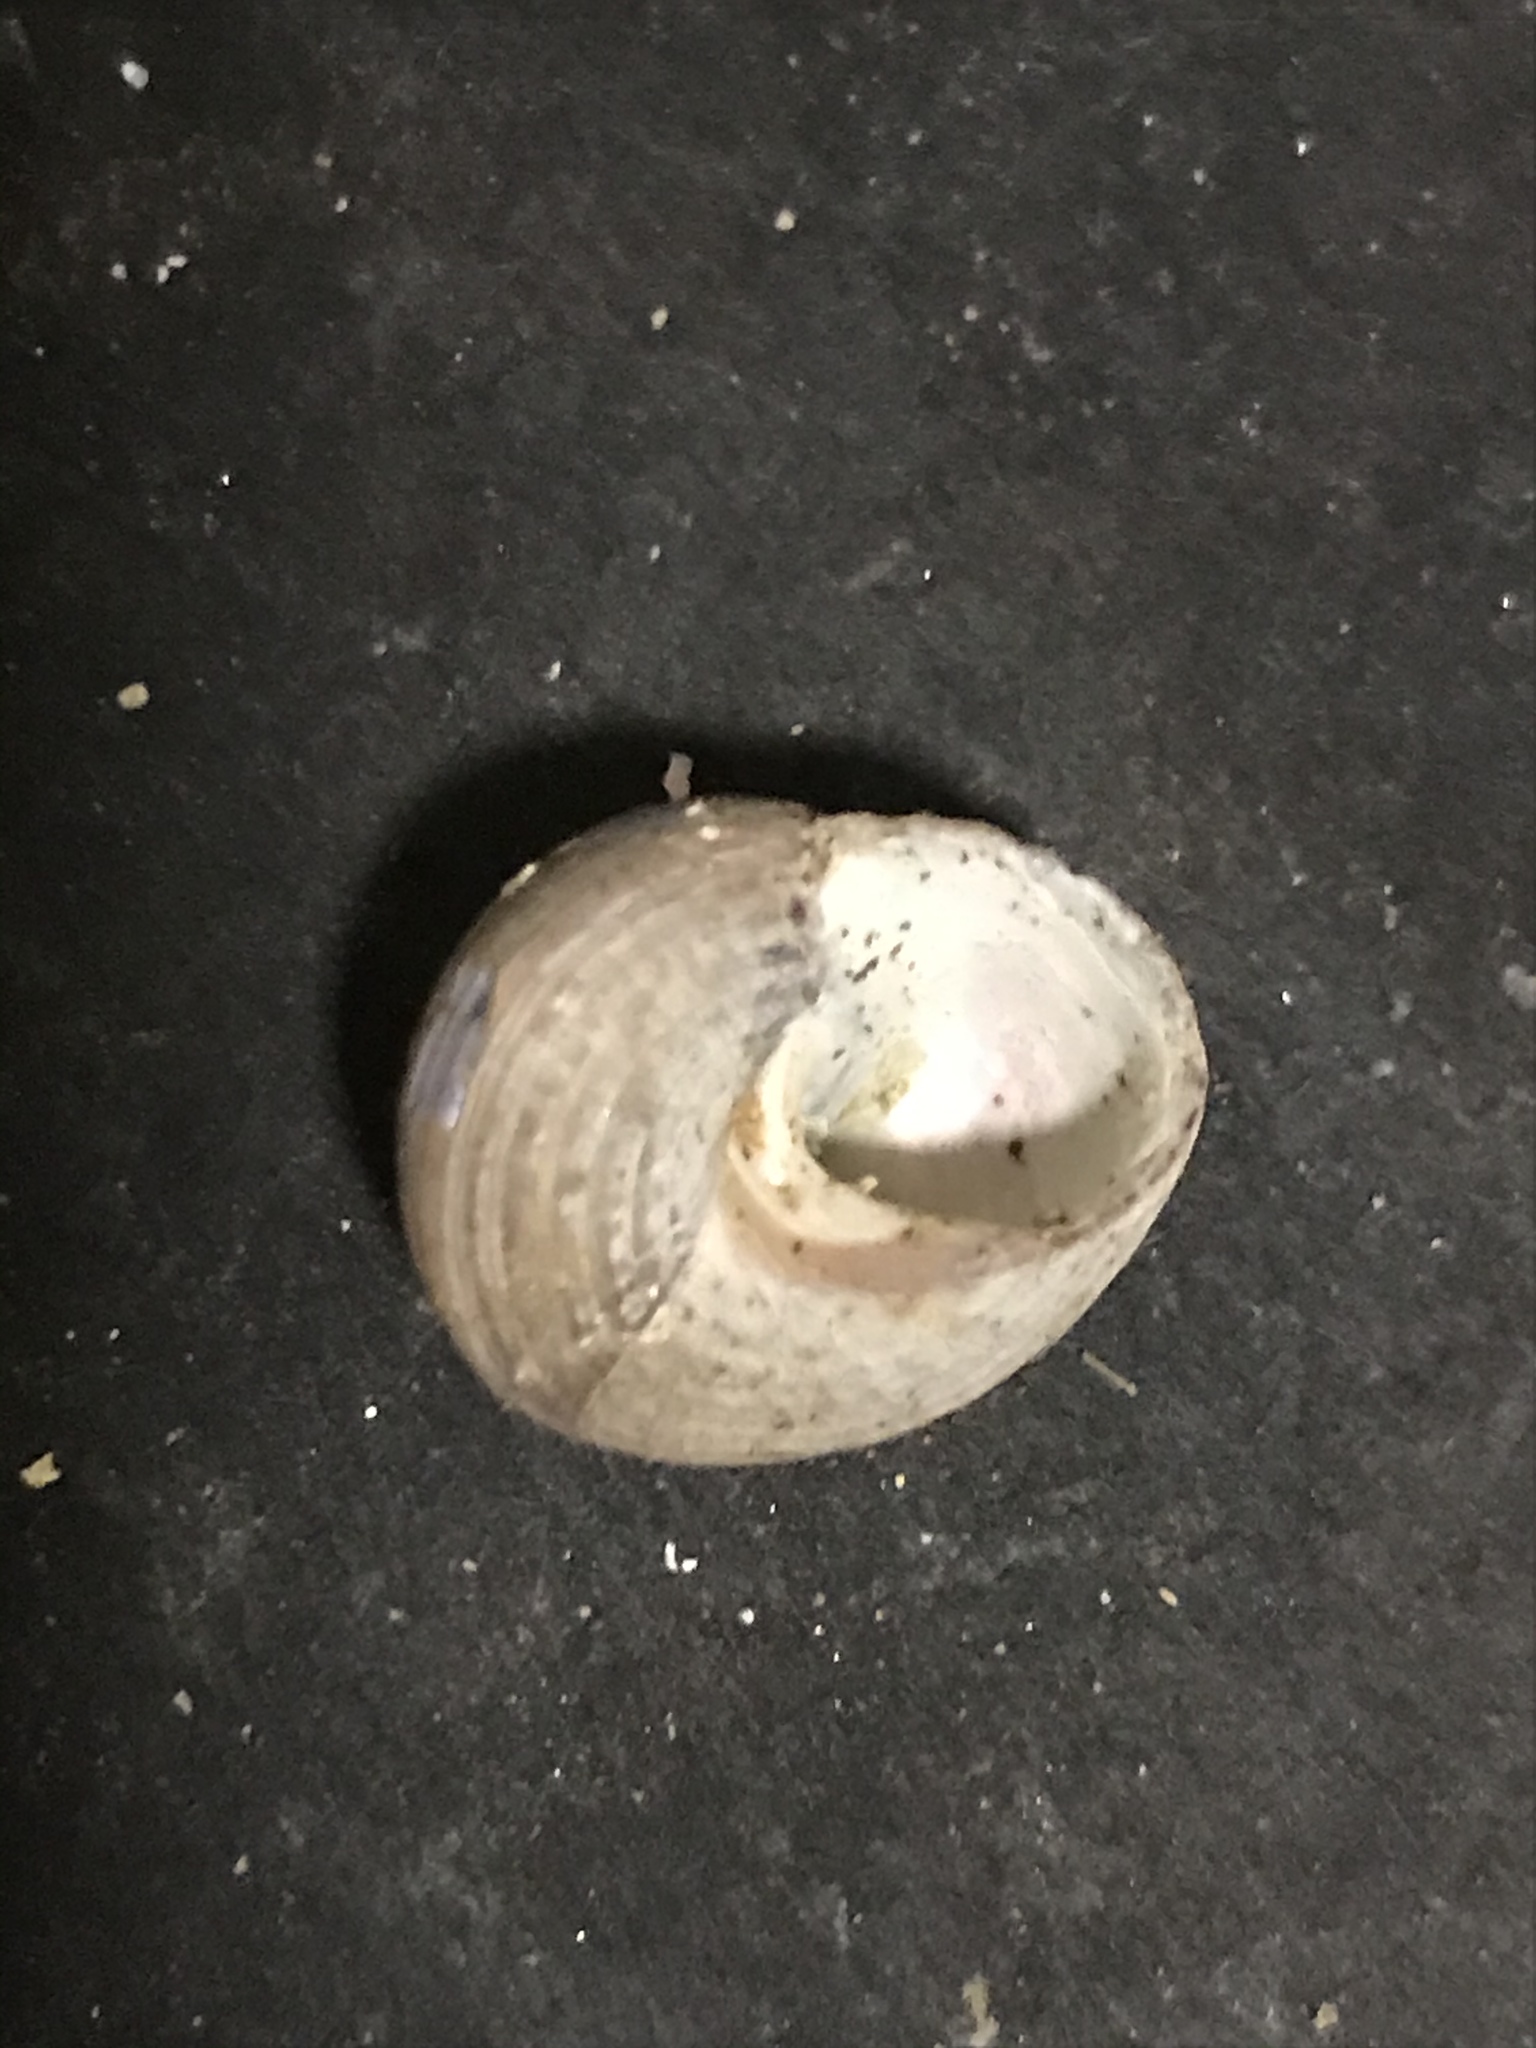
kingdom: Animalia
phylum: Mollusca
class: Gastropoda
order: Trochida
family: Calliostomatidae
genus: Calliostoma
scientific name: Calliostoma ligatum
